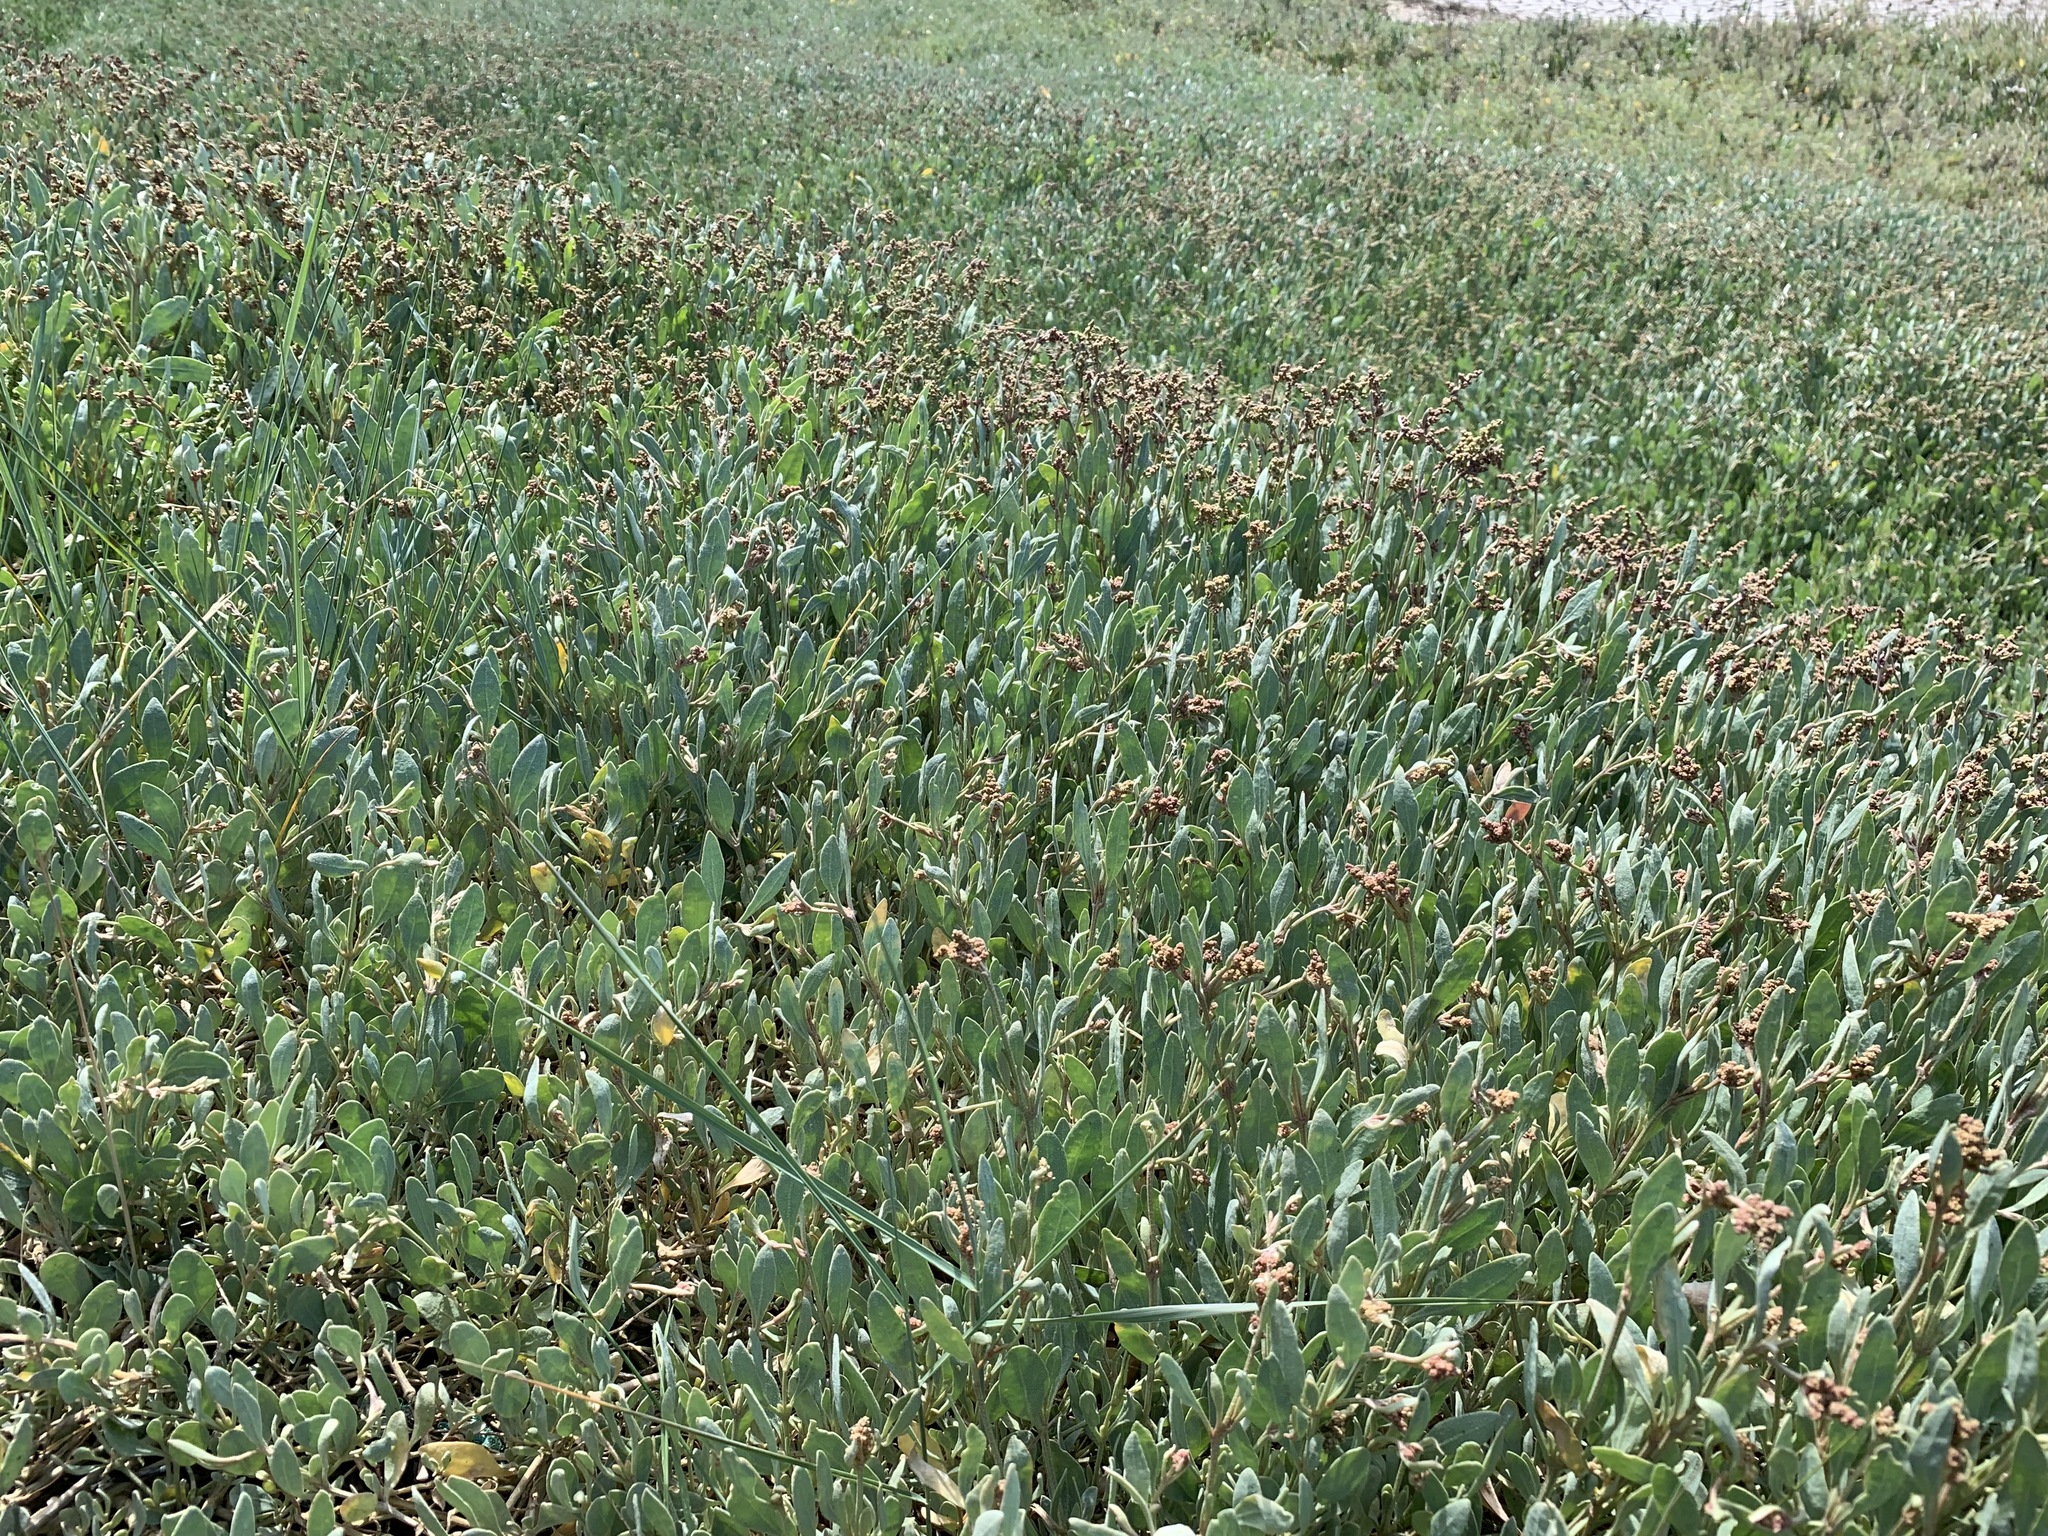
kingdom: Plantae
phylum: Tracheophyta
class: Magnoliopsida
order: Caryophyllales
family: Amaranthaceae
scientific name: Amaranthaceae
